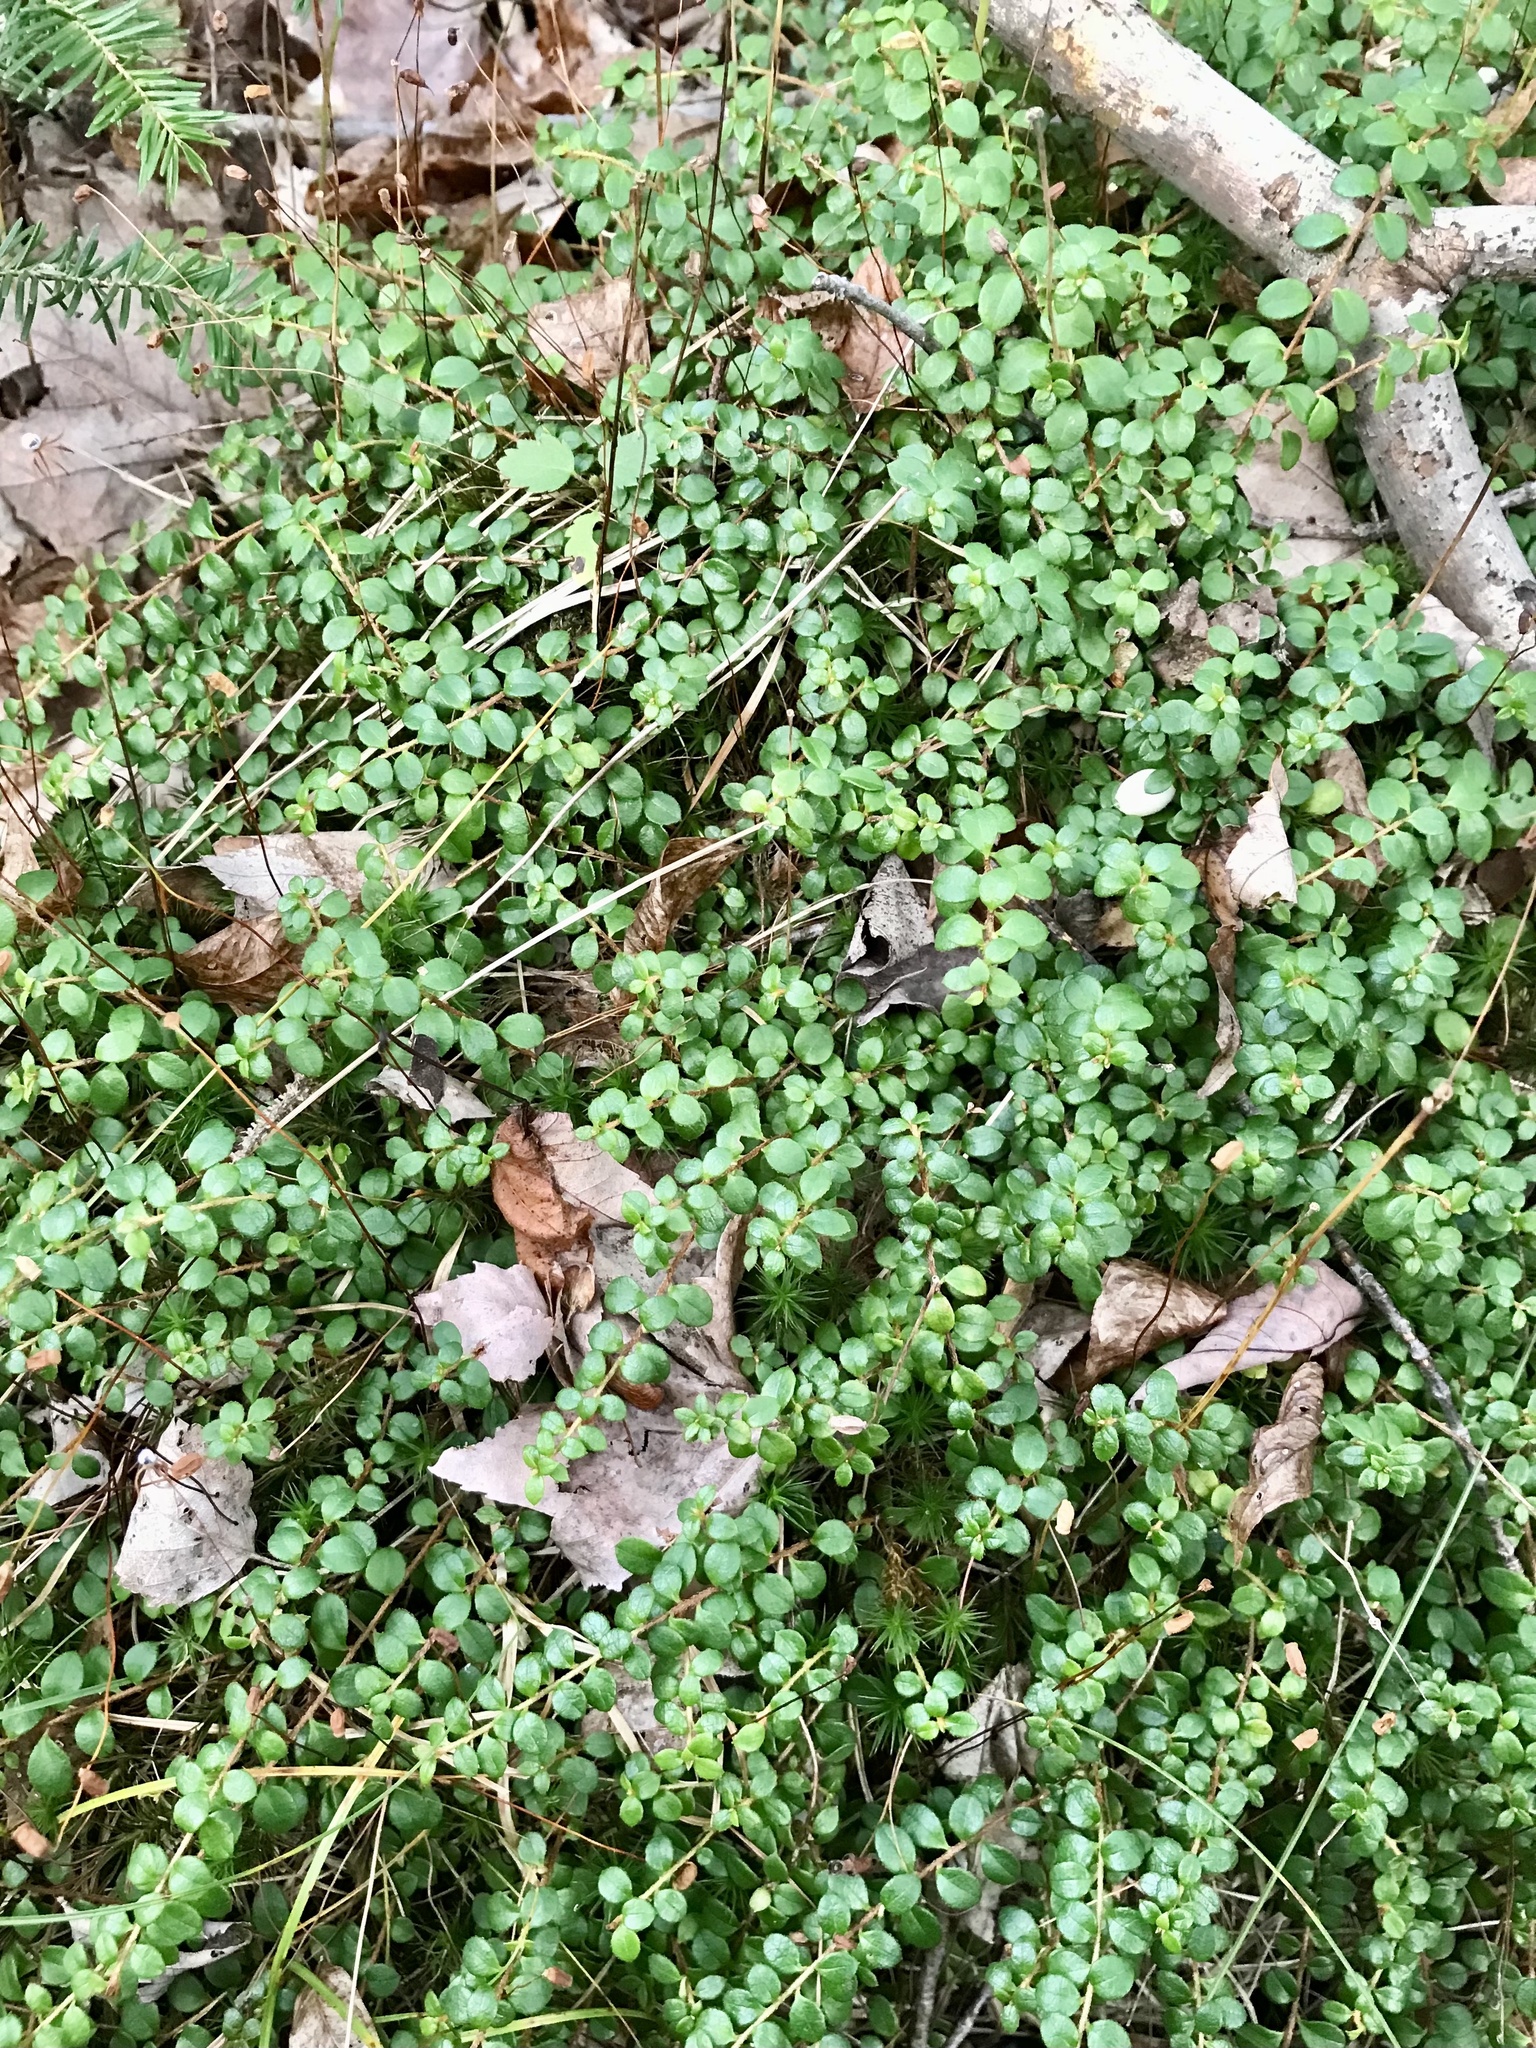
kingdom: Plantae
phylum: Tracheophyta
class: Magnoliopsida
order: Ericales
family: Ericaceae
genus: Gaultheria
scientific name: Gaultheria hispidula
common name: Cancer wintergreen
